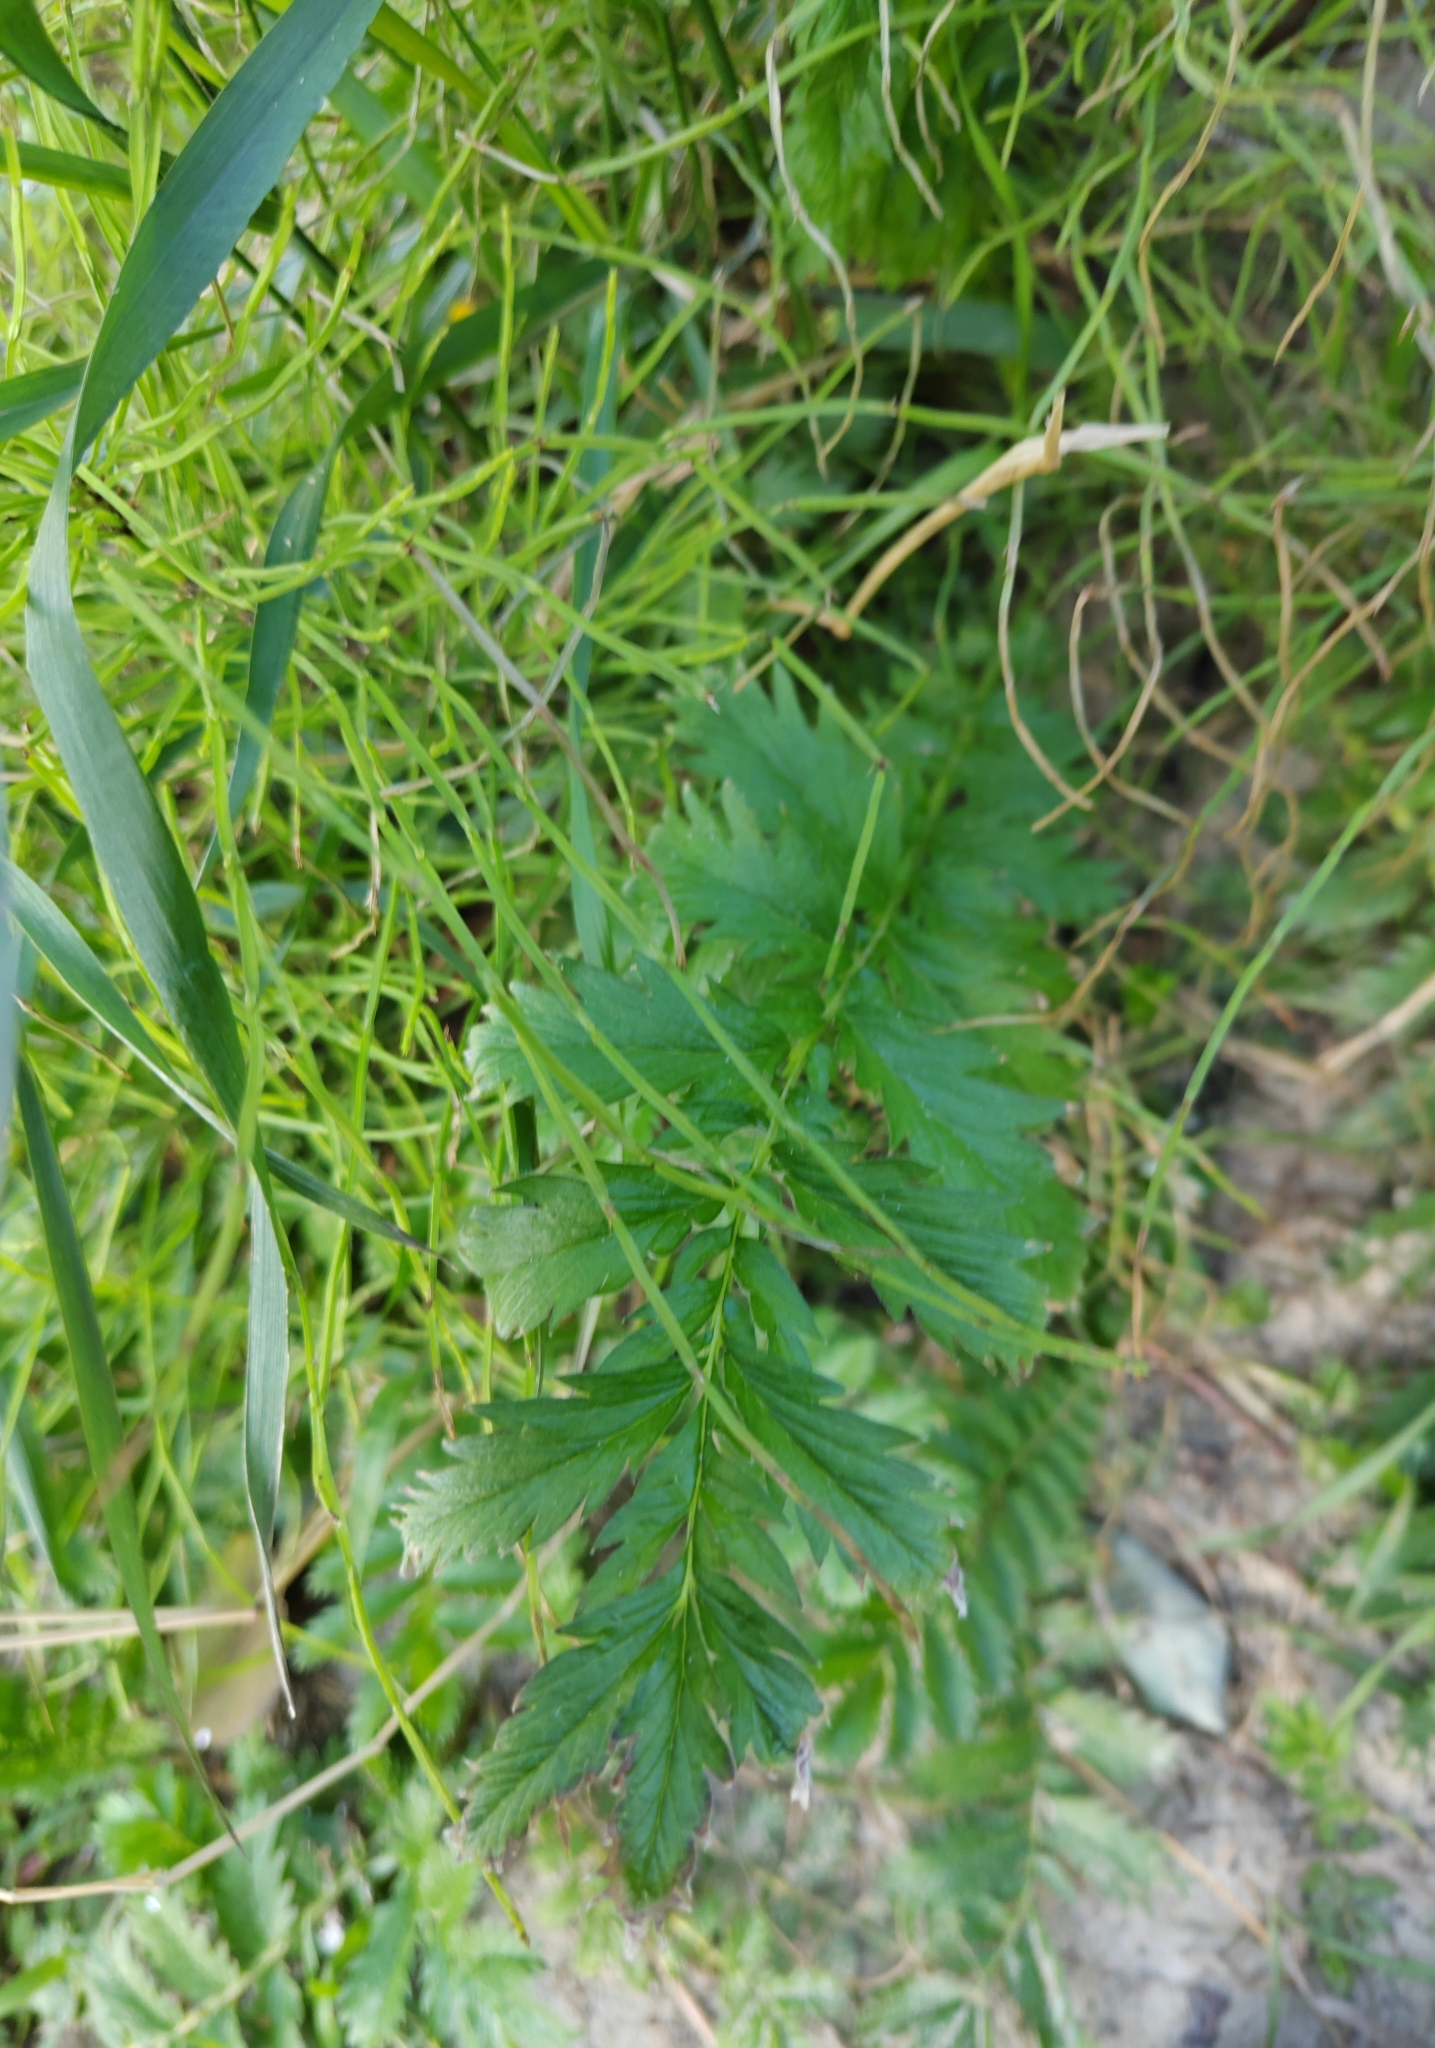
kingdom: Plantae
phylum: Tracheophyta
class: Magnoliopsida
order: Rosales
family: Rosaceae
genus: Argentina
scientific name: Argentina anserina
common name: Common silverweed
